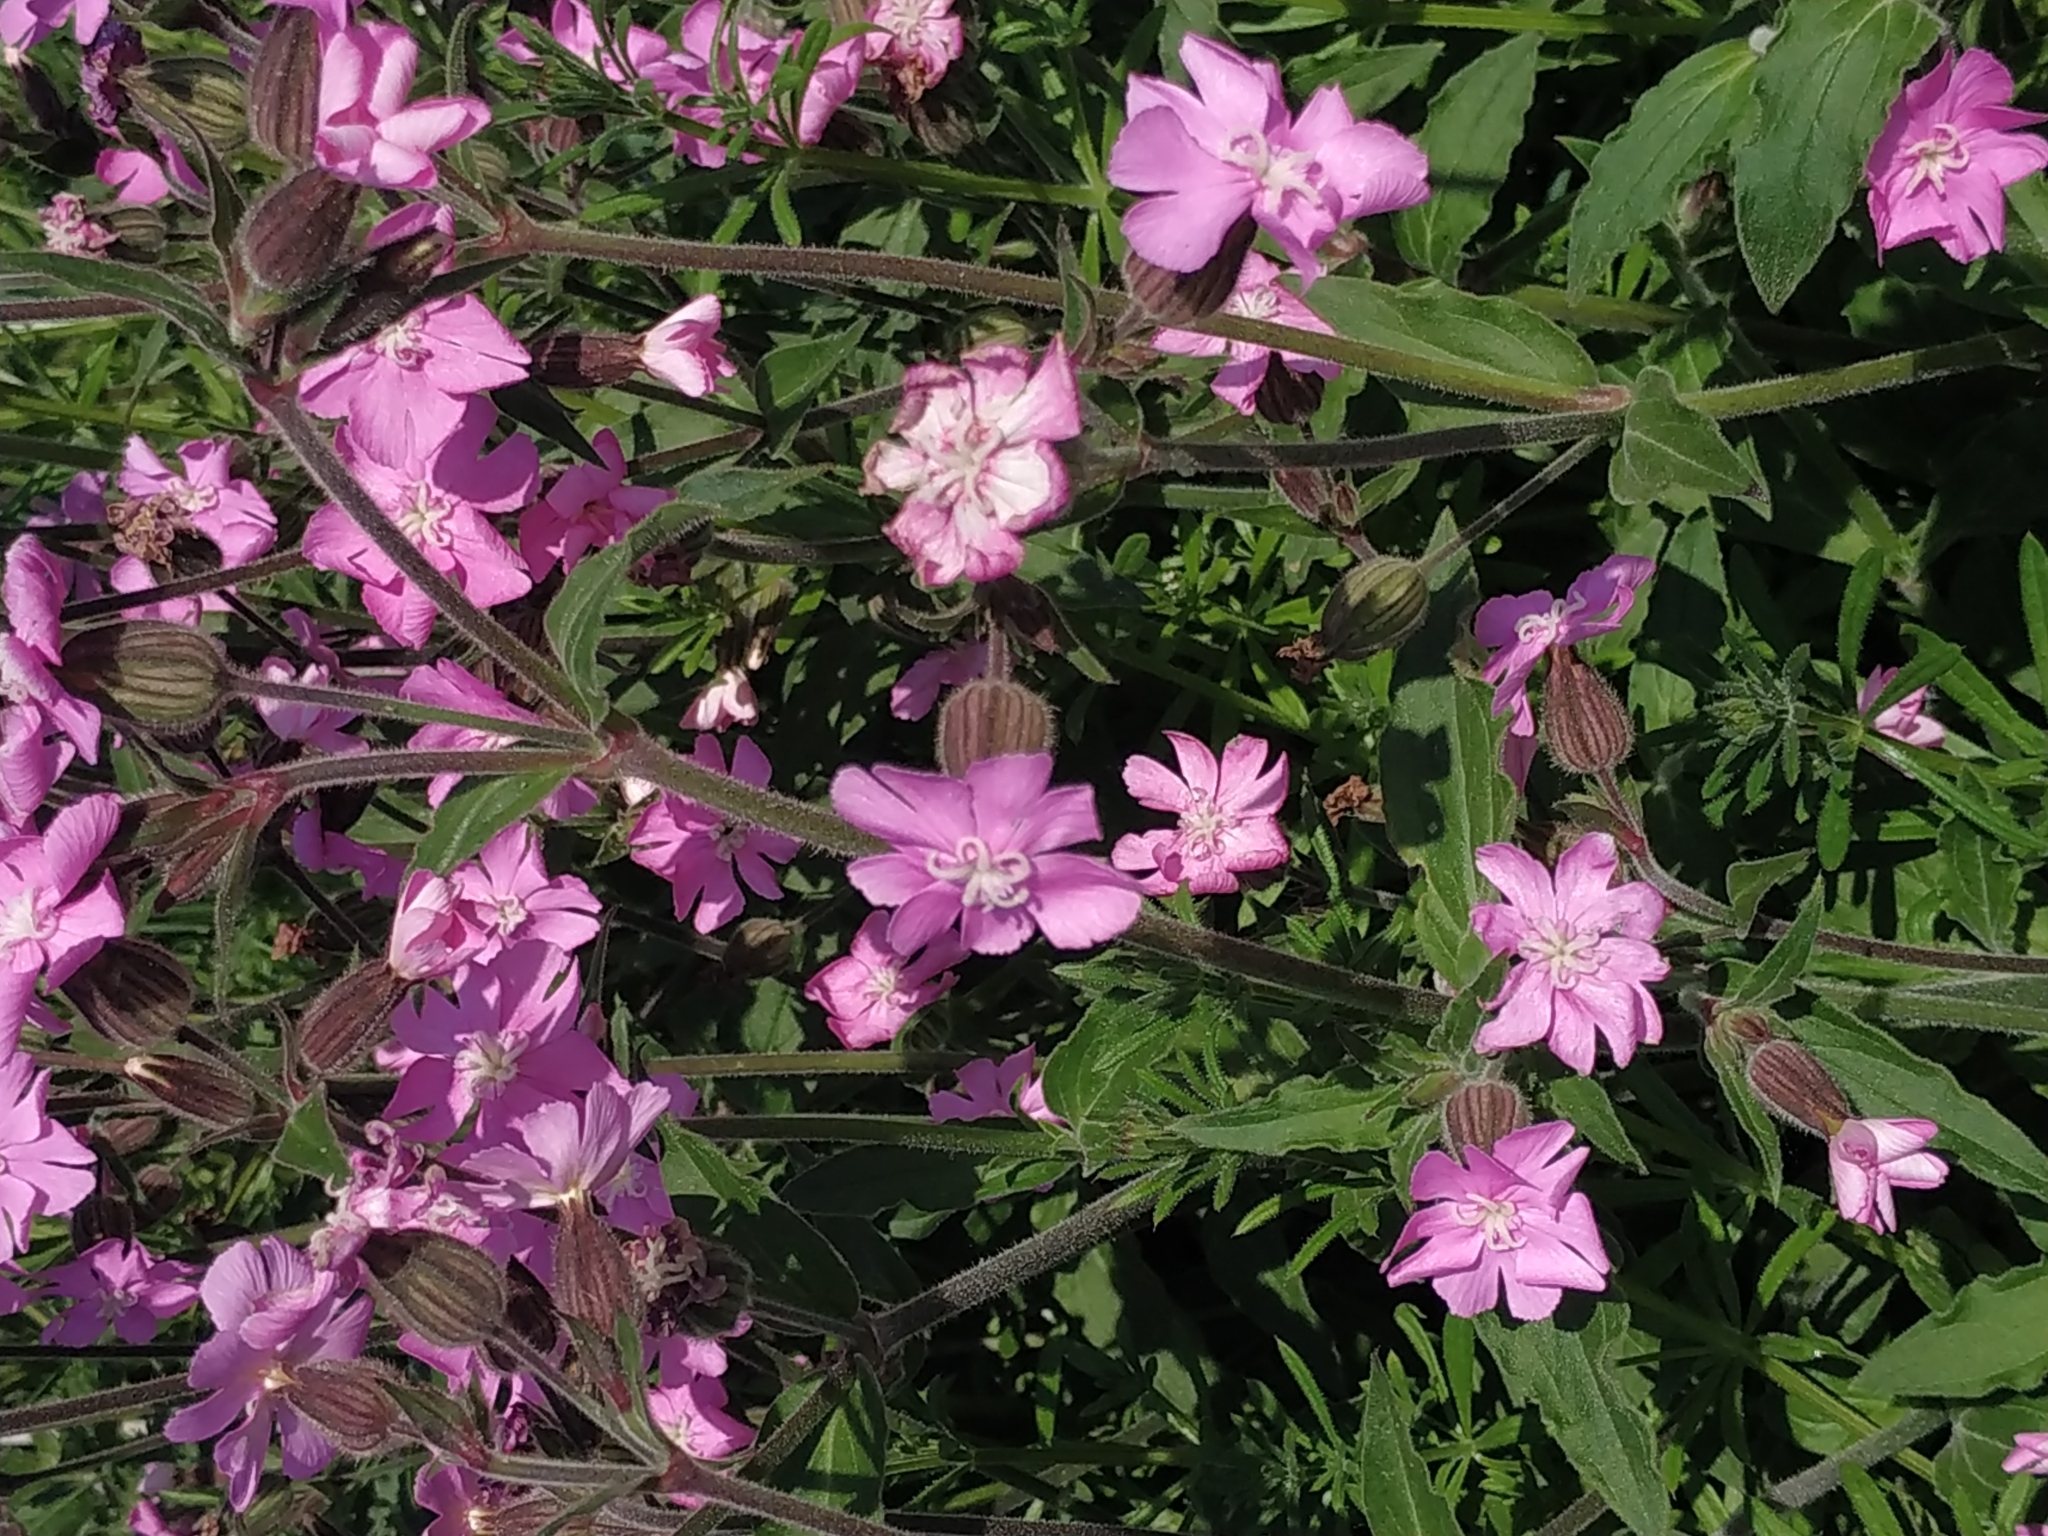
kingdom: Plantae
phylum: Tracheophyta
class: Magnoliopsida
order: Caryophyllales
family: Caryophyllaceae
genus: Silene
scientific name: Silene dioica
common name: Red campion
